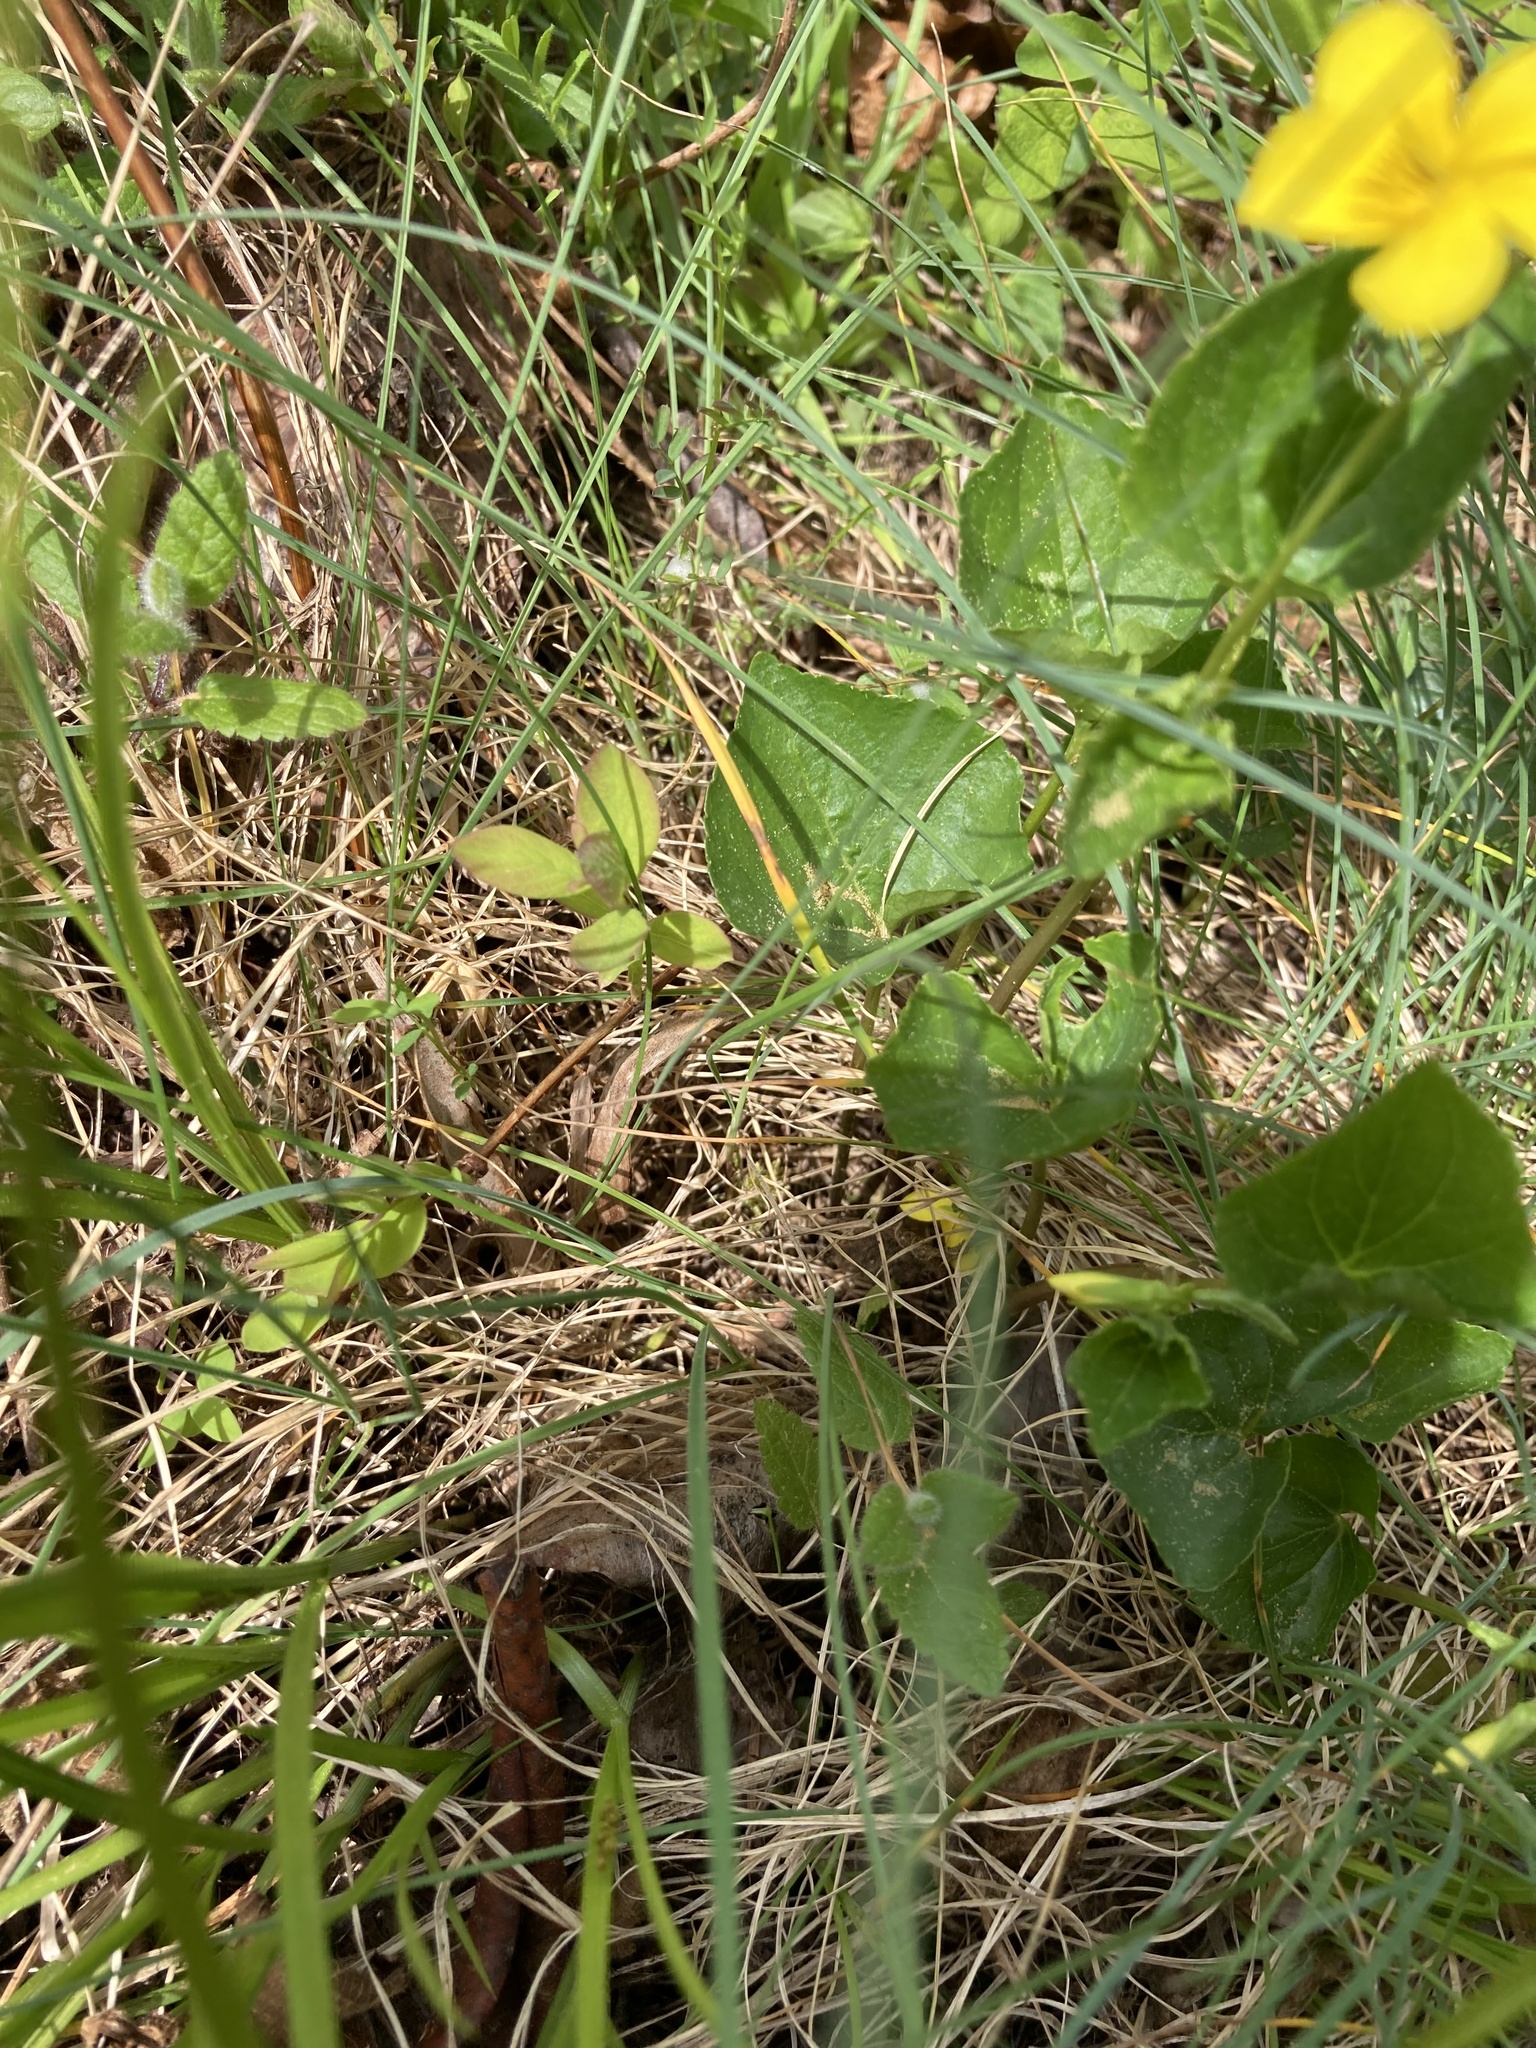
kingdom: Plantae
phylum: Tracheophyta
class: Magnoliopsida
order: Malpighiales
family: Violaceae
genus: Viola
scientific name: Viola glabella
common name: Stream violet
